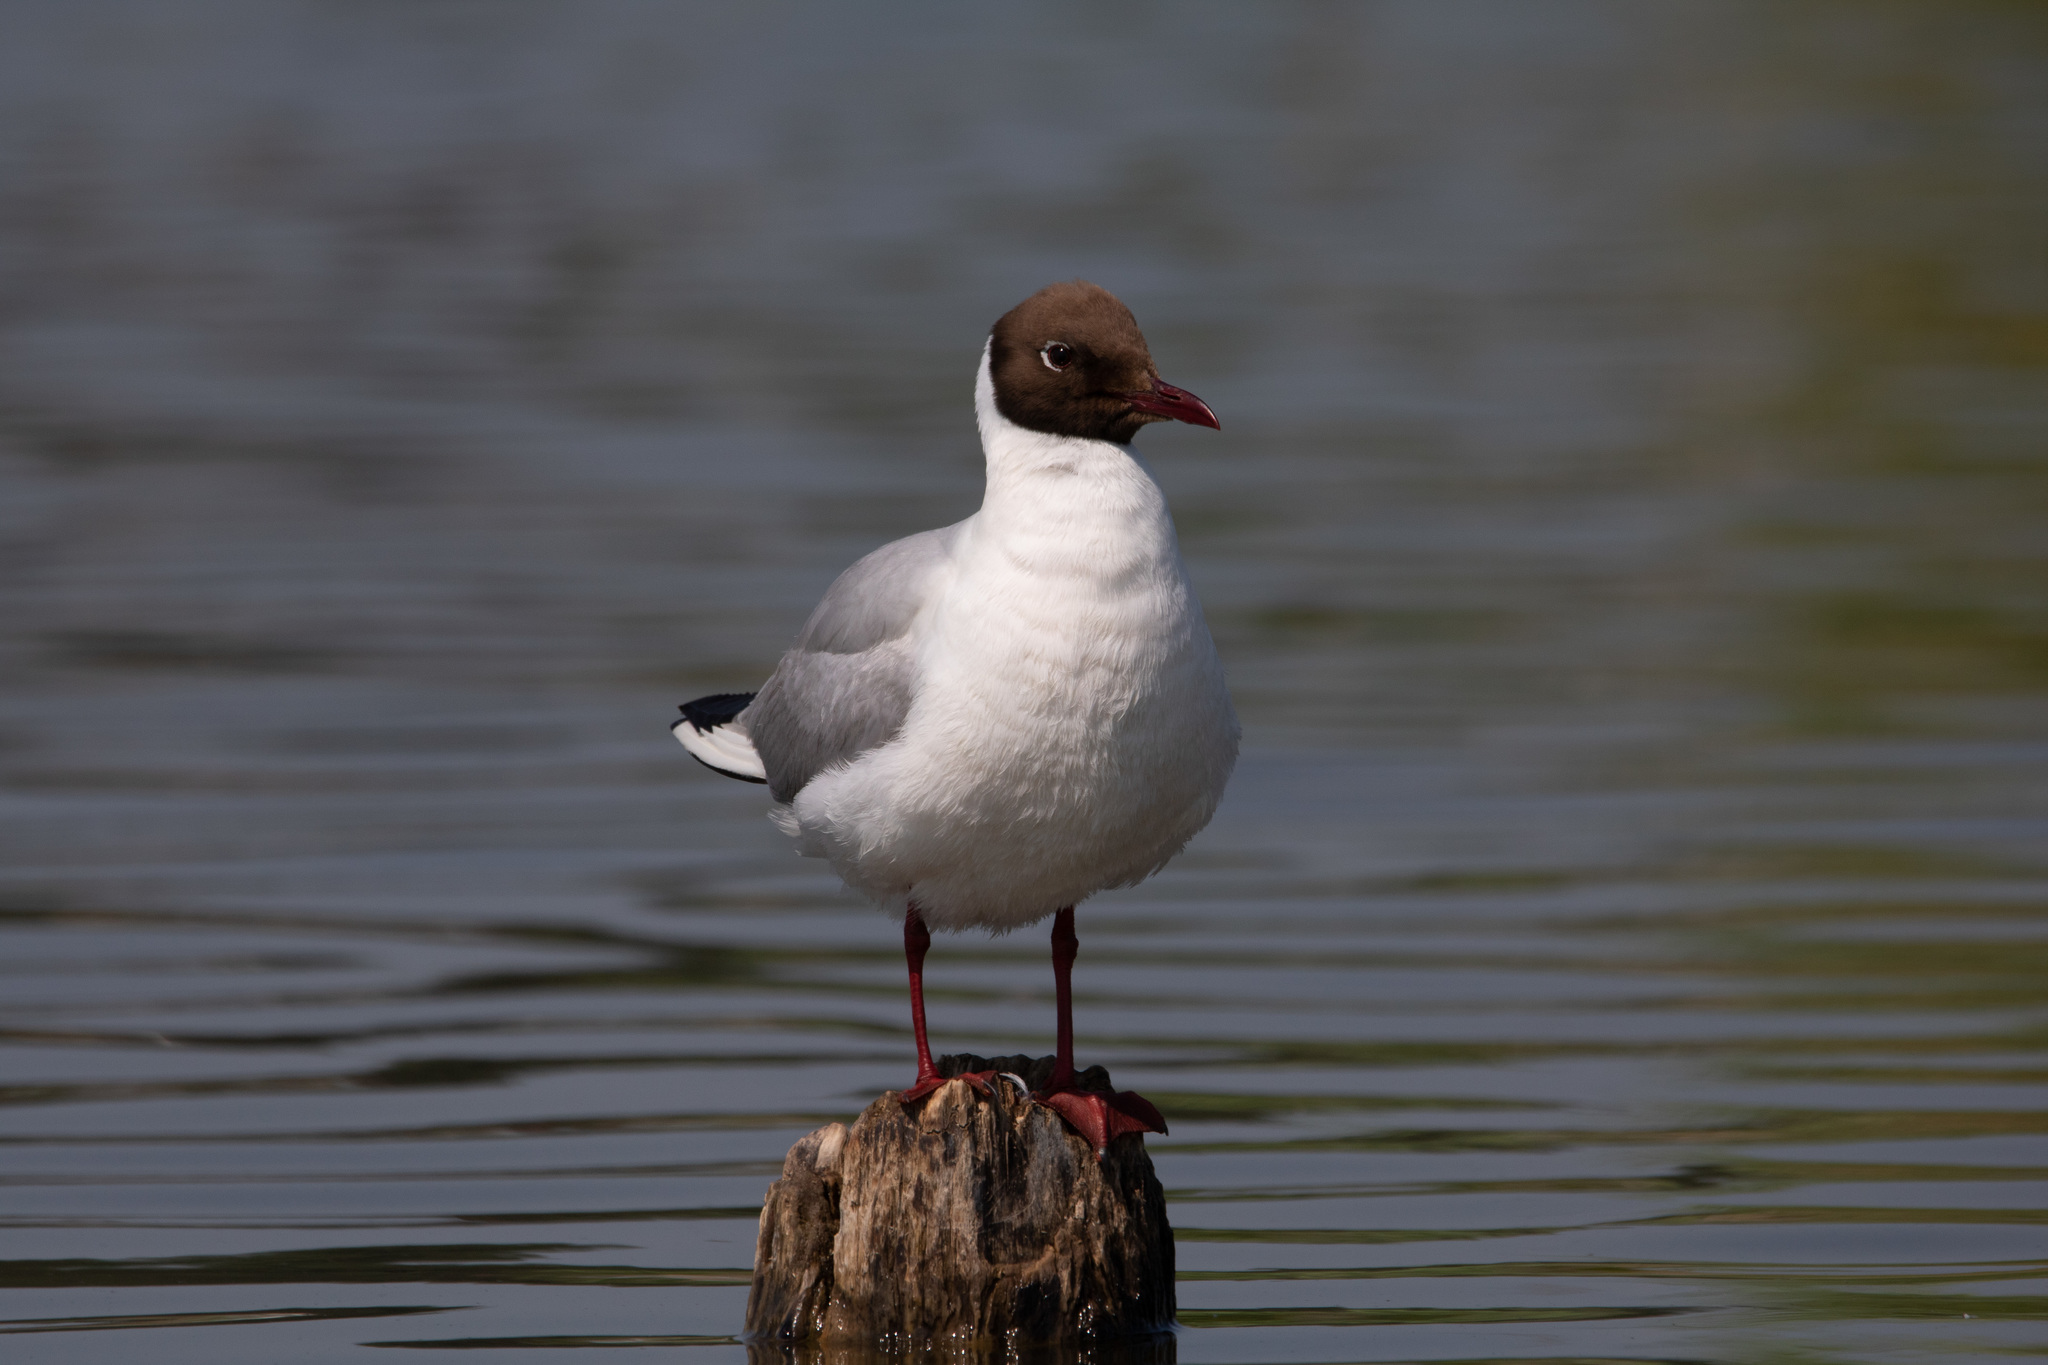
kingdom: Animalia
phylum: Chordata
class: Aves
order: Charadriiformes
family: Laridae
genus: Chroicocephalus
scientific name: Chroicocephalus ridibundus
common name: Black-headed gull
